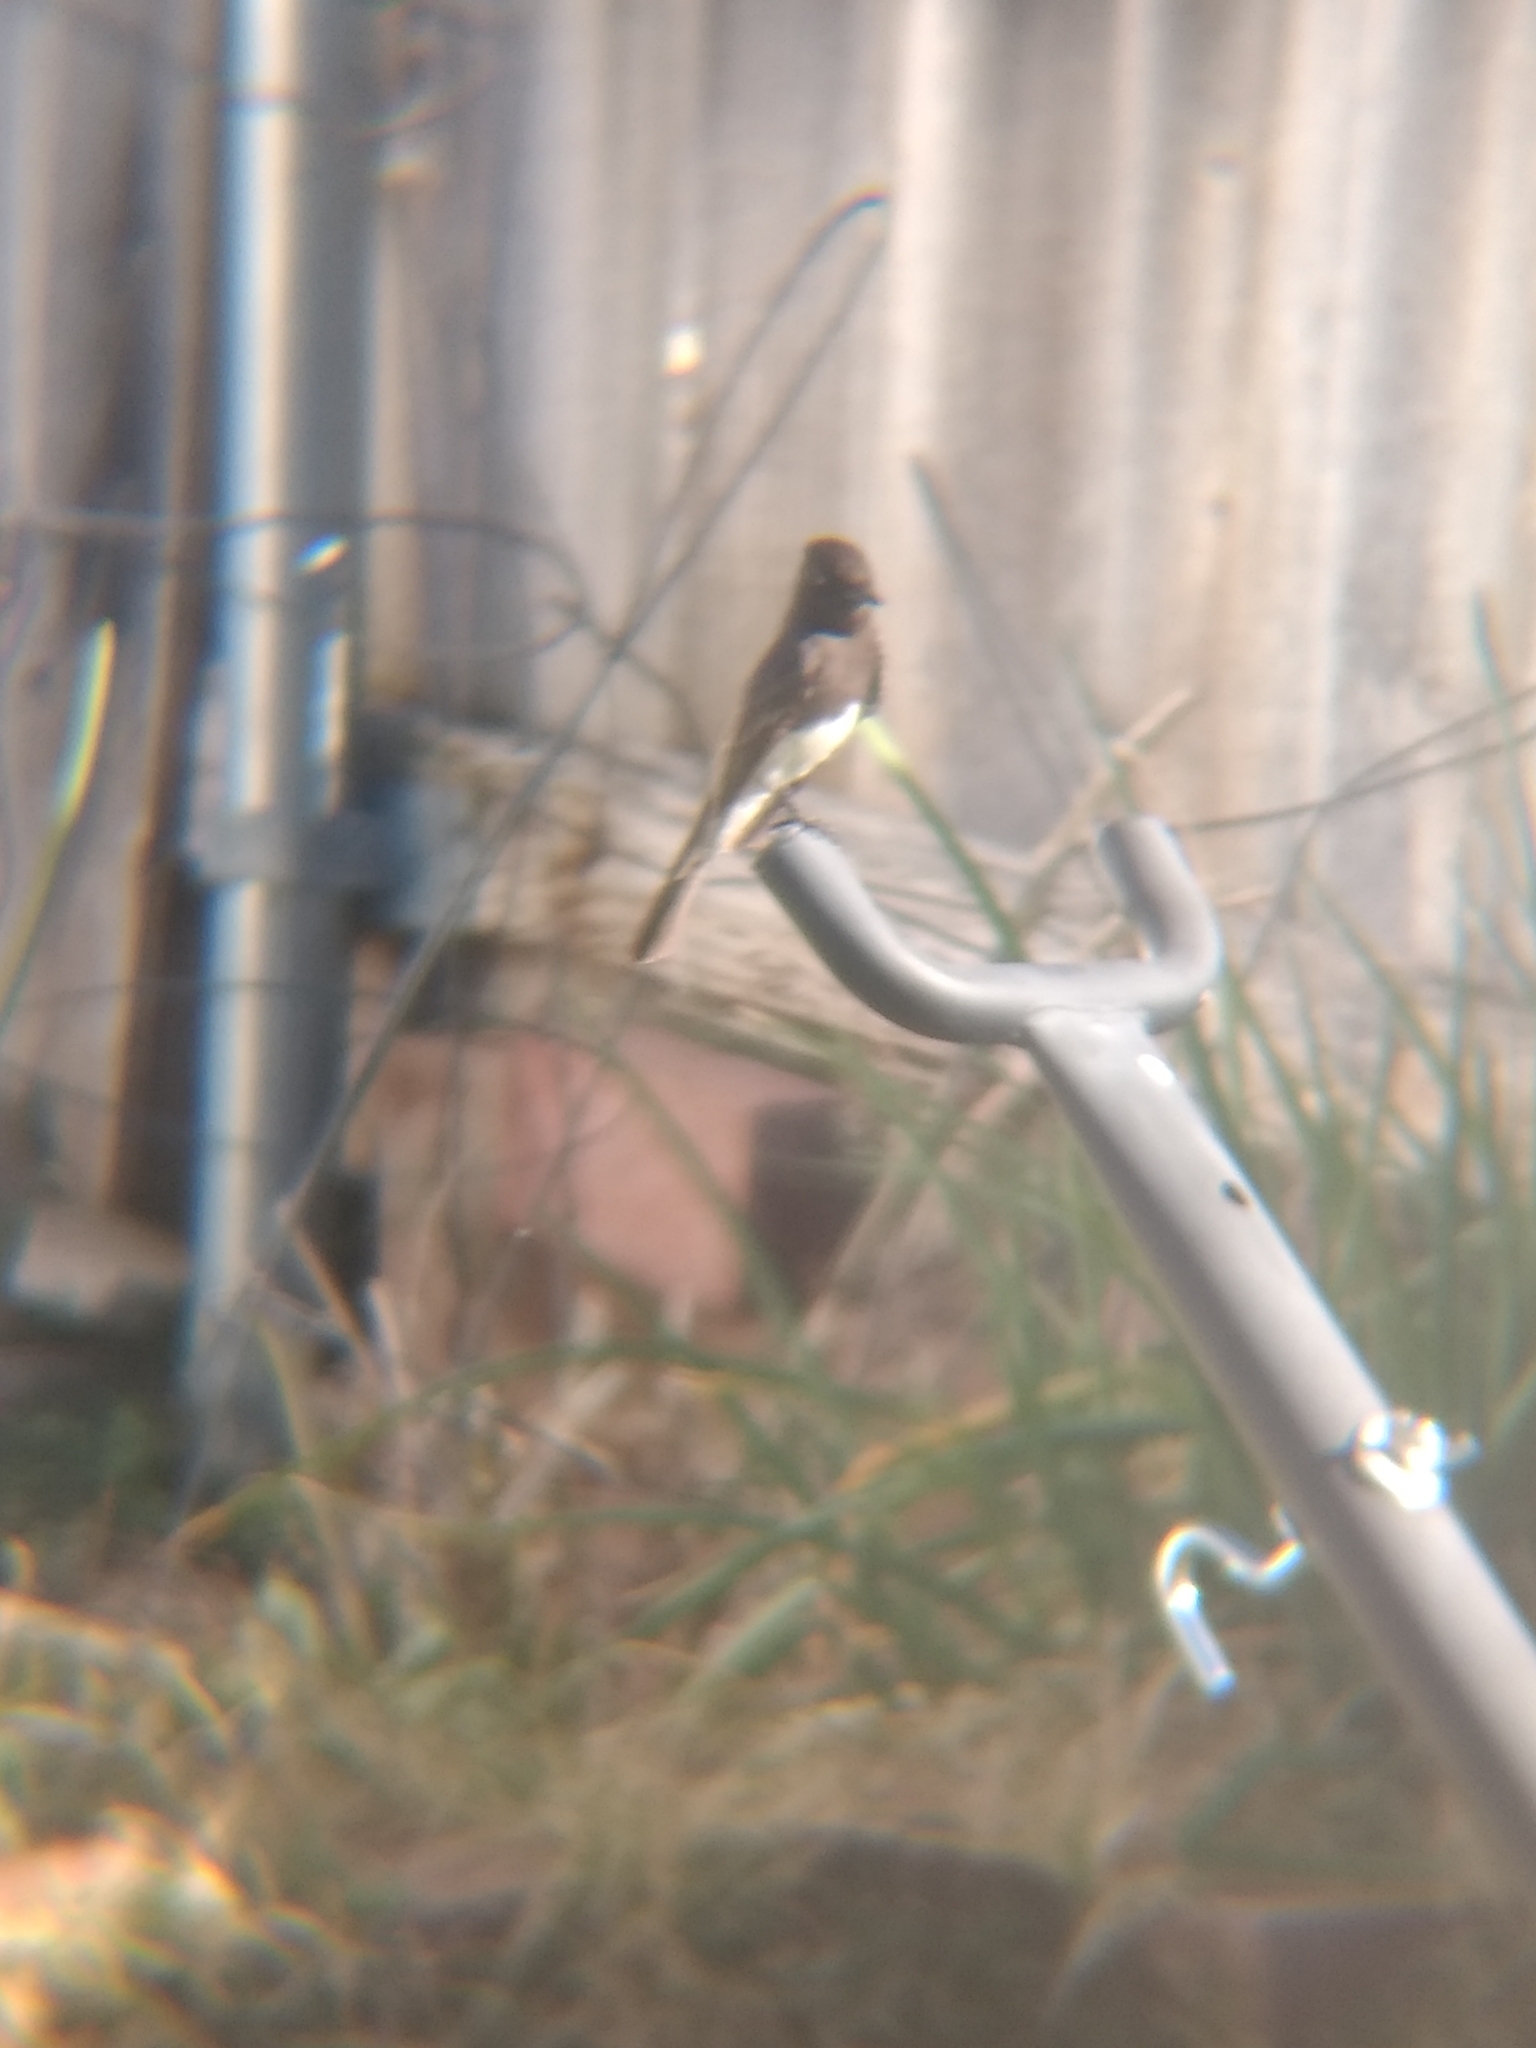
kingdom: Animalia
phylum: Chordata
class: Aves
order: Passeriformes
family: Tyrannidae
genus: Sayornis
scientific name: Sayornis nigricans
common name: Black phoebe
